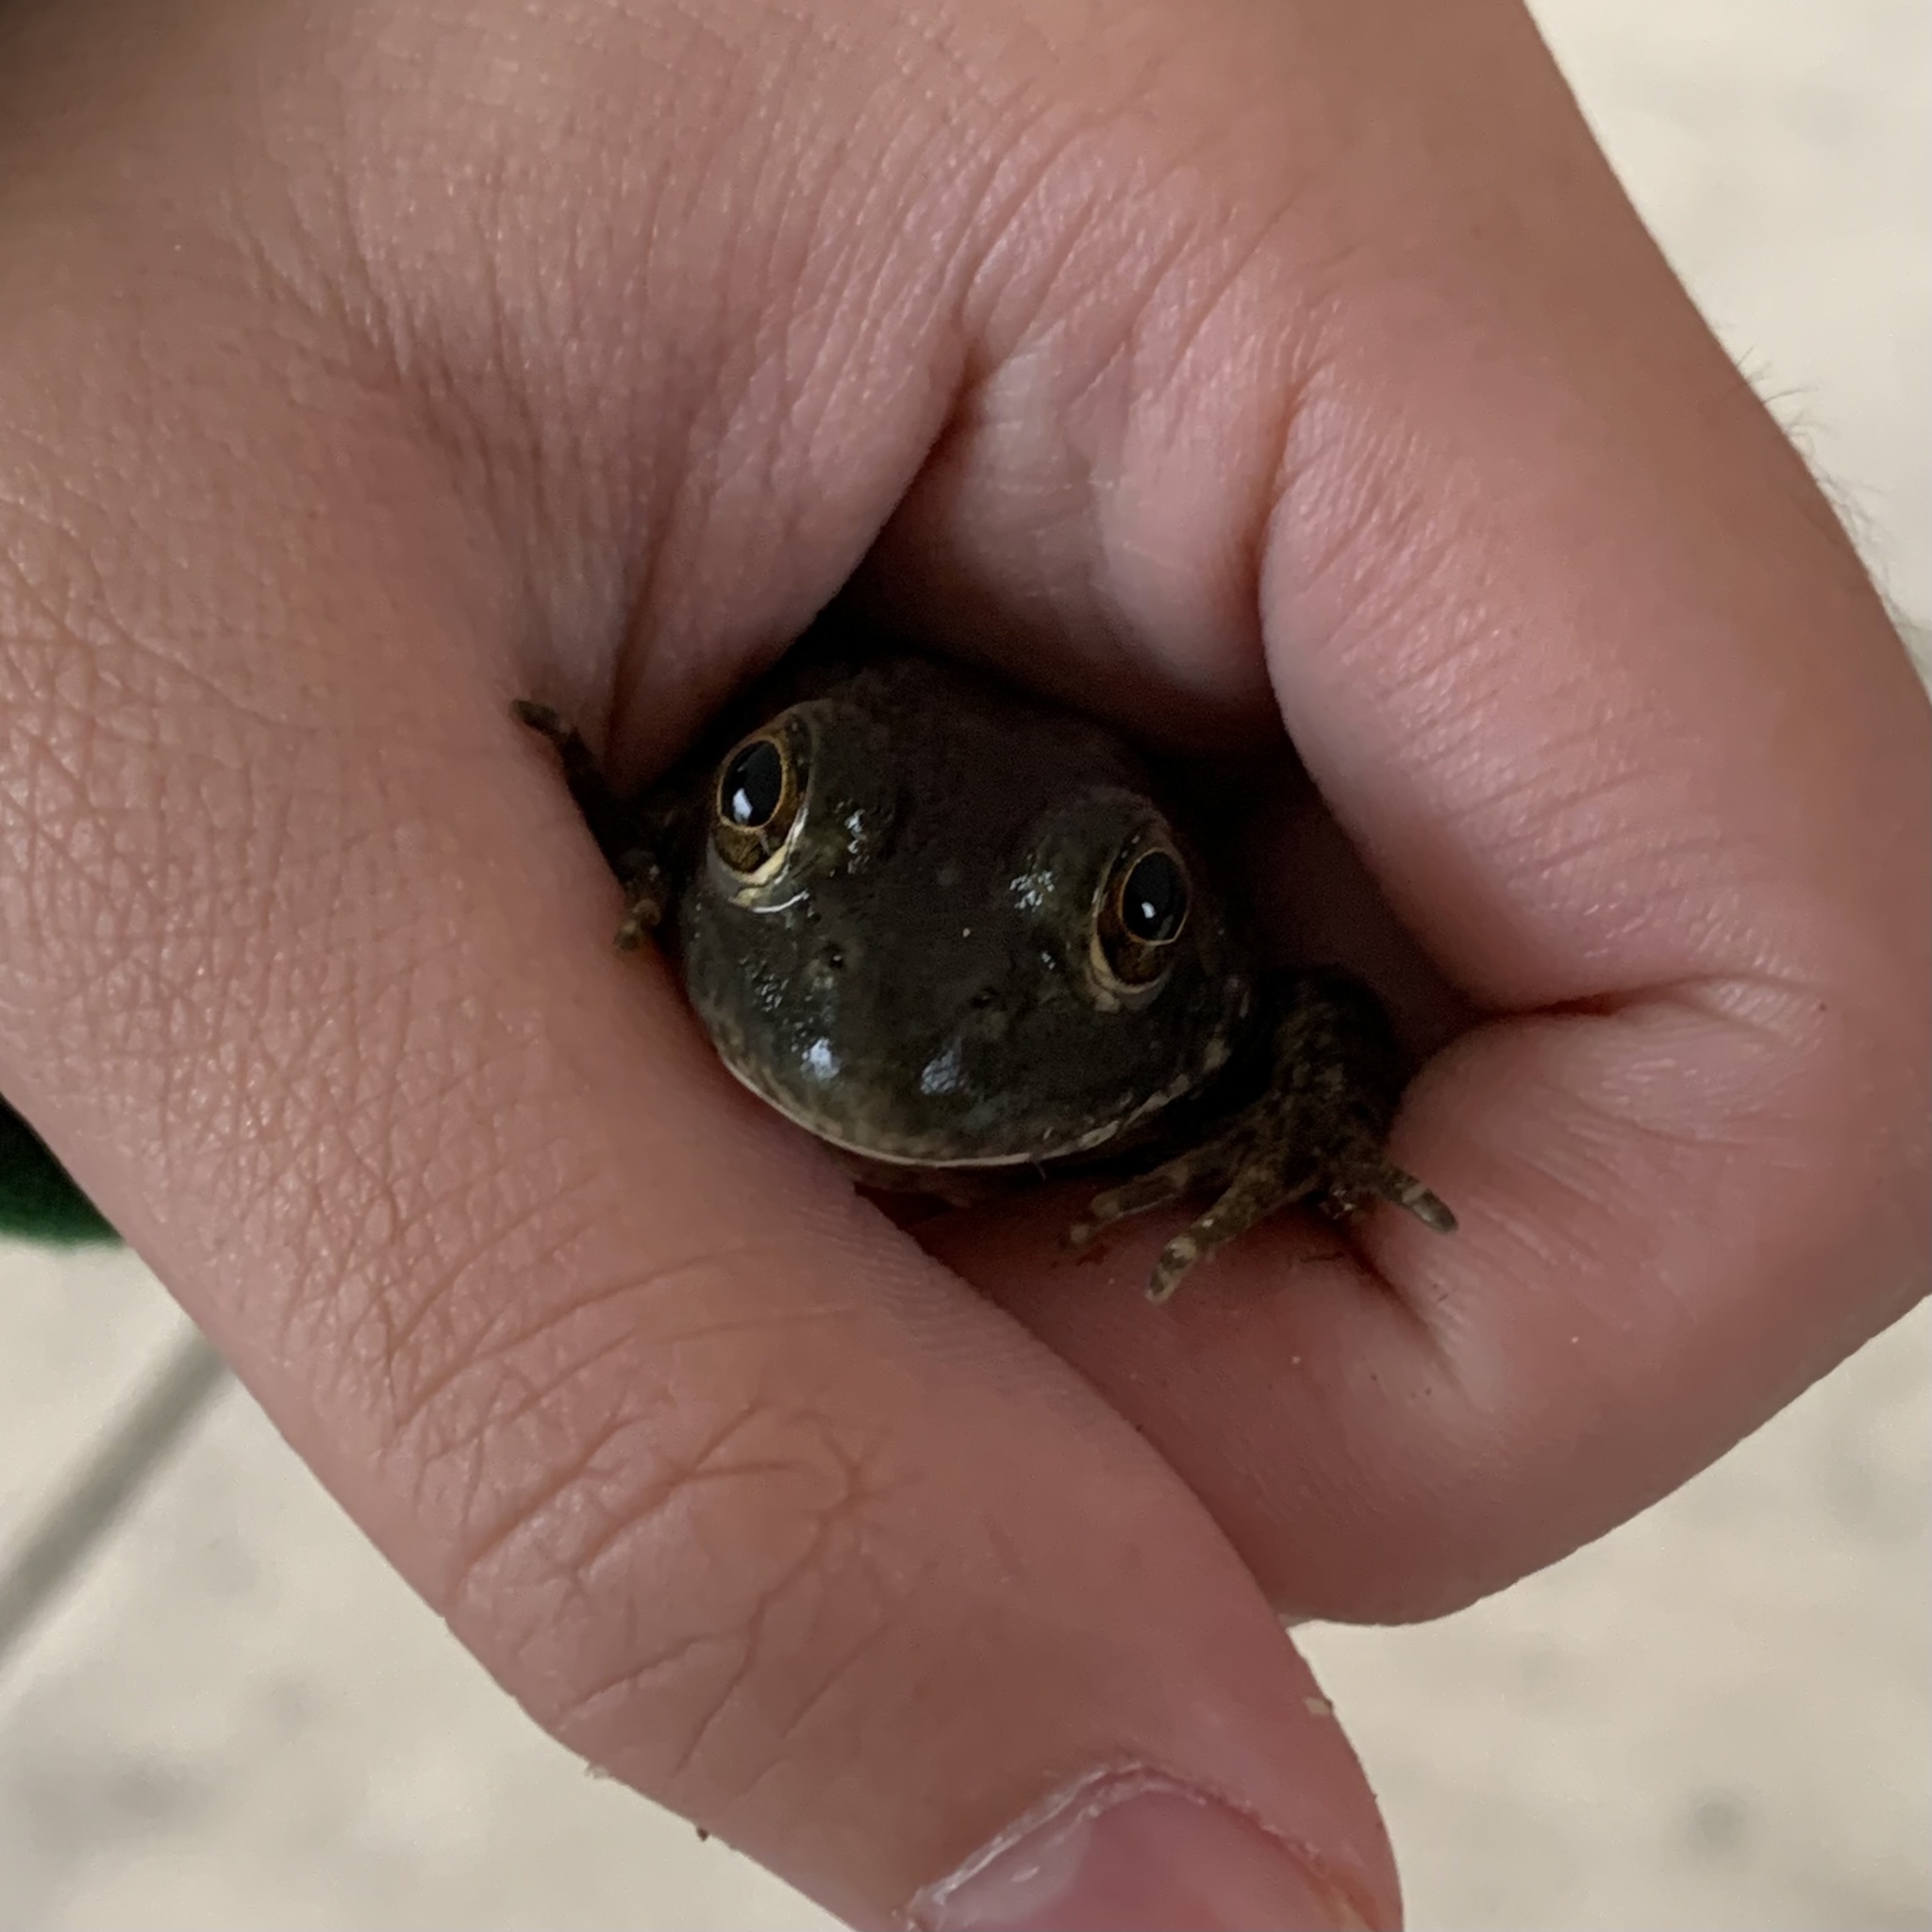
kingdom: Animalia
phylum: Chordata
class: Amphibia
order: Anura
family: Ranidae
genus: Lithobates
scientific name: Lithobates catesbeianus
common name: American bullfrog
